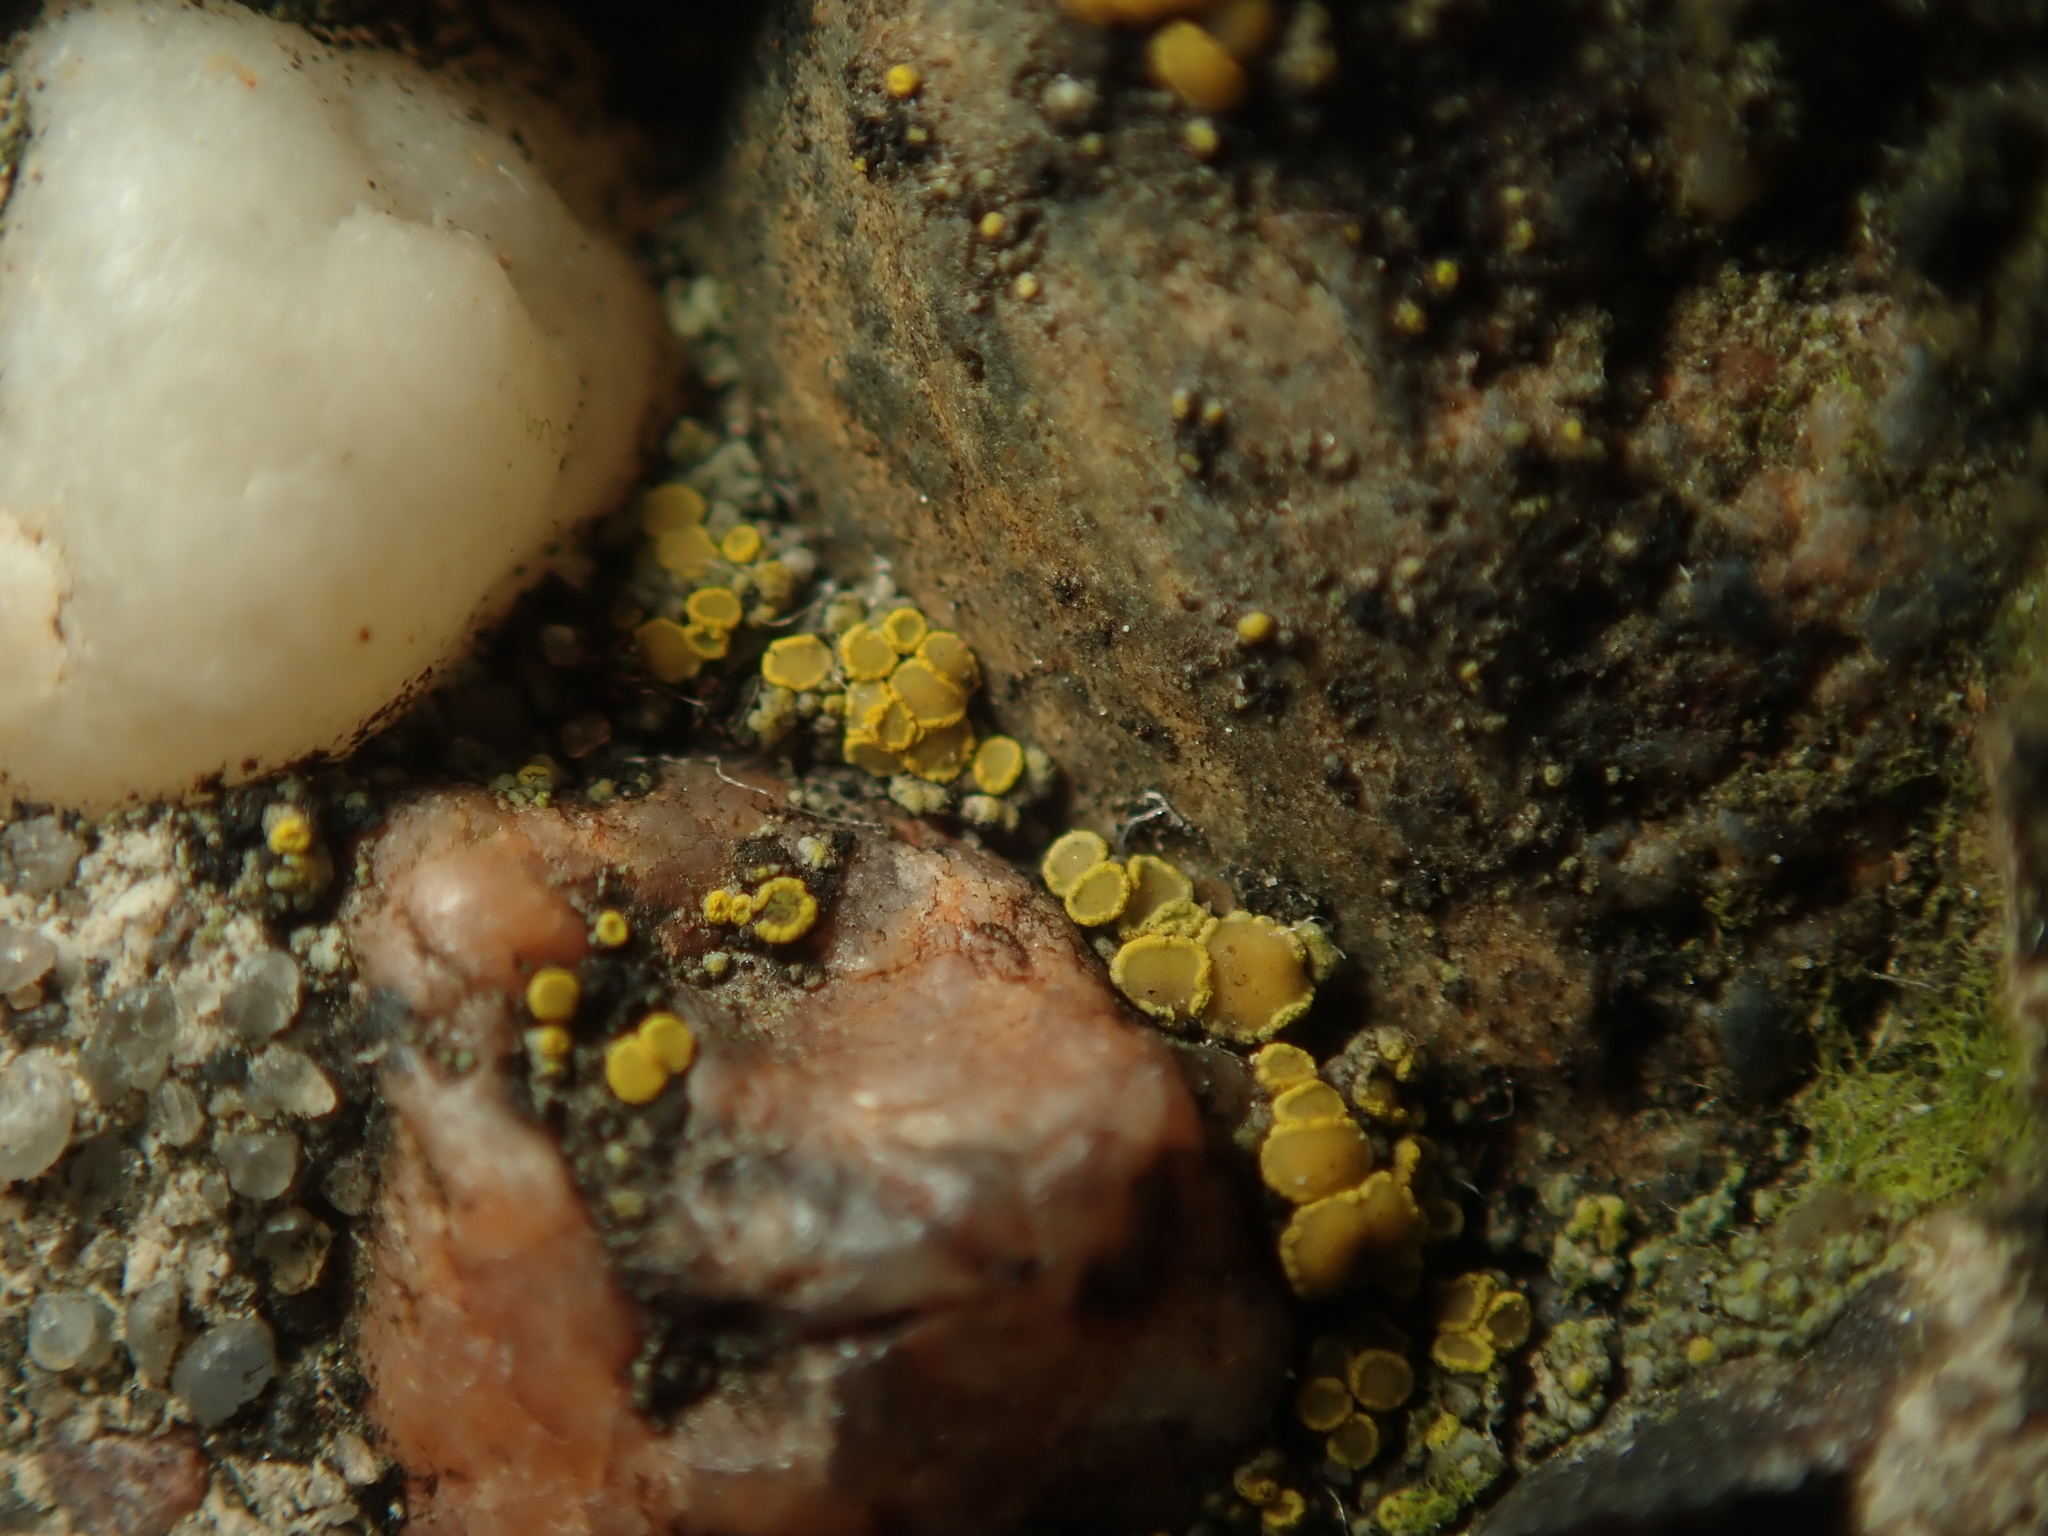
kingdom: Fungi
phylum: Ascomycota
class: Candelariomycetes
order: Candelariales
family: Candelariaceae
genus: Candelariella
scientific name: Candelariella vitellina
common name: Common goldspeck
